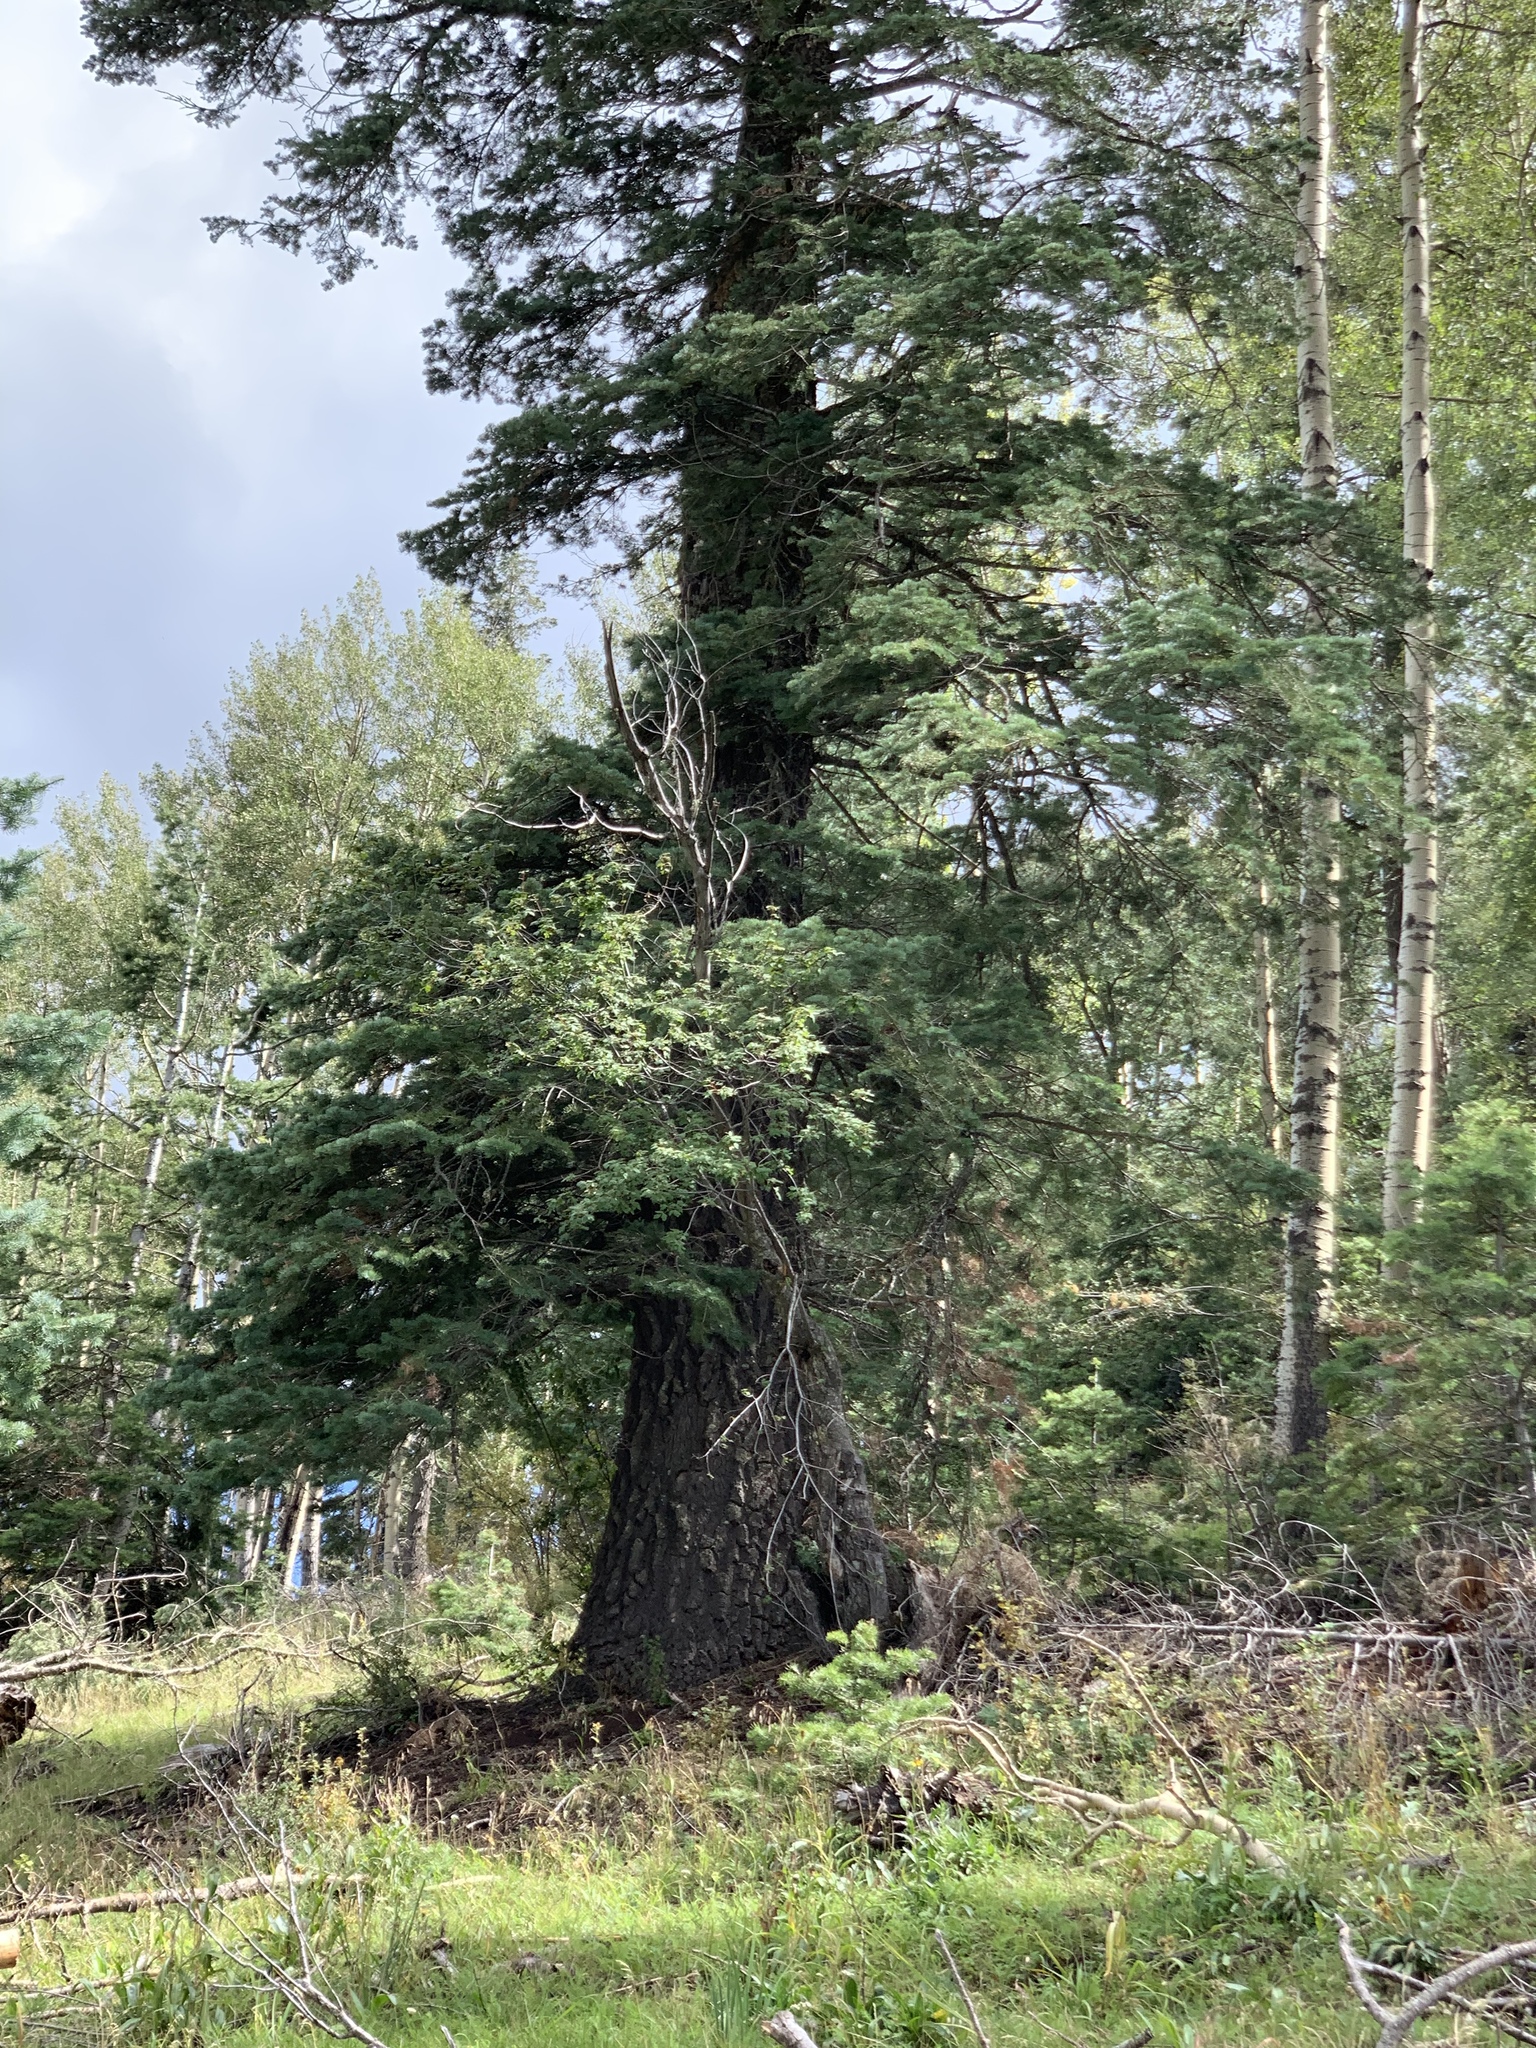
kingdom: Plantae
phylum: Tracheophyta
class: Pinopsida
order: Pinales
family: Pinaceae
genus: Abies
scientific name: Abies concolor
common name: Colorado fir
